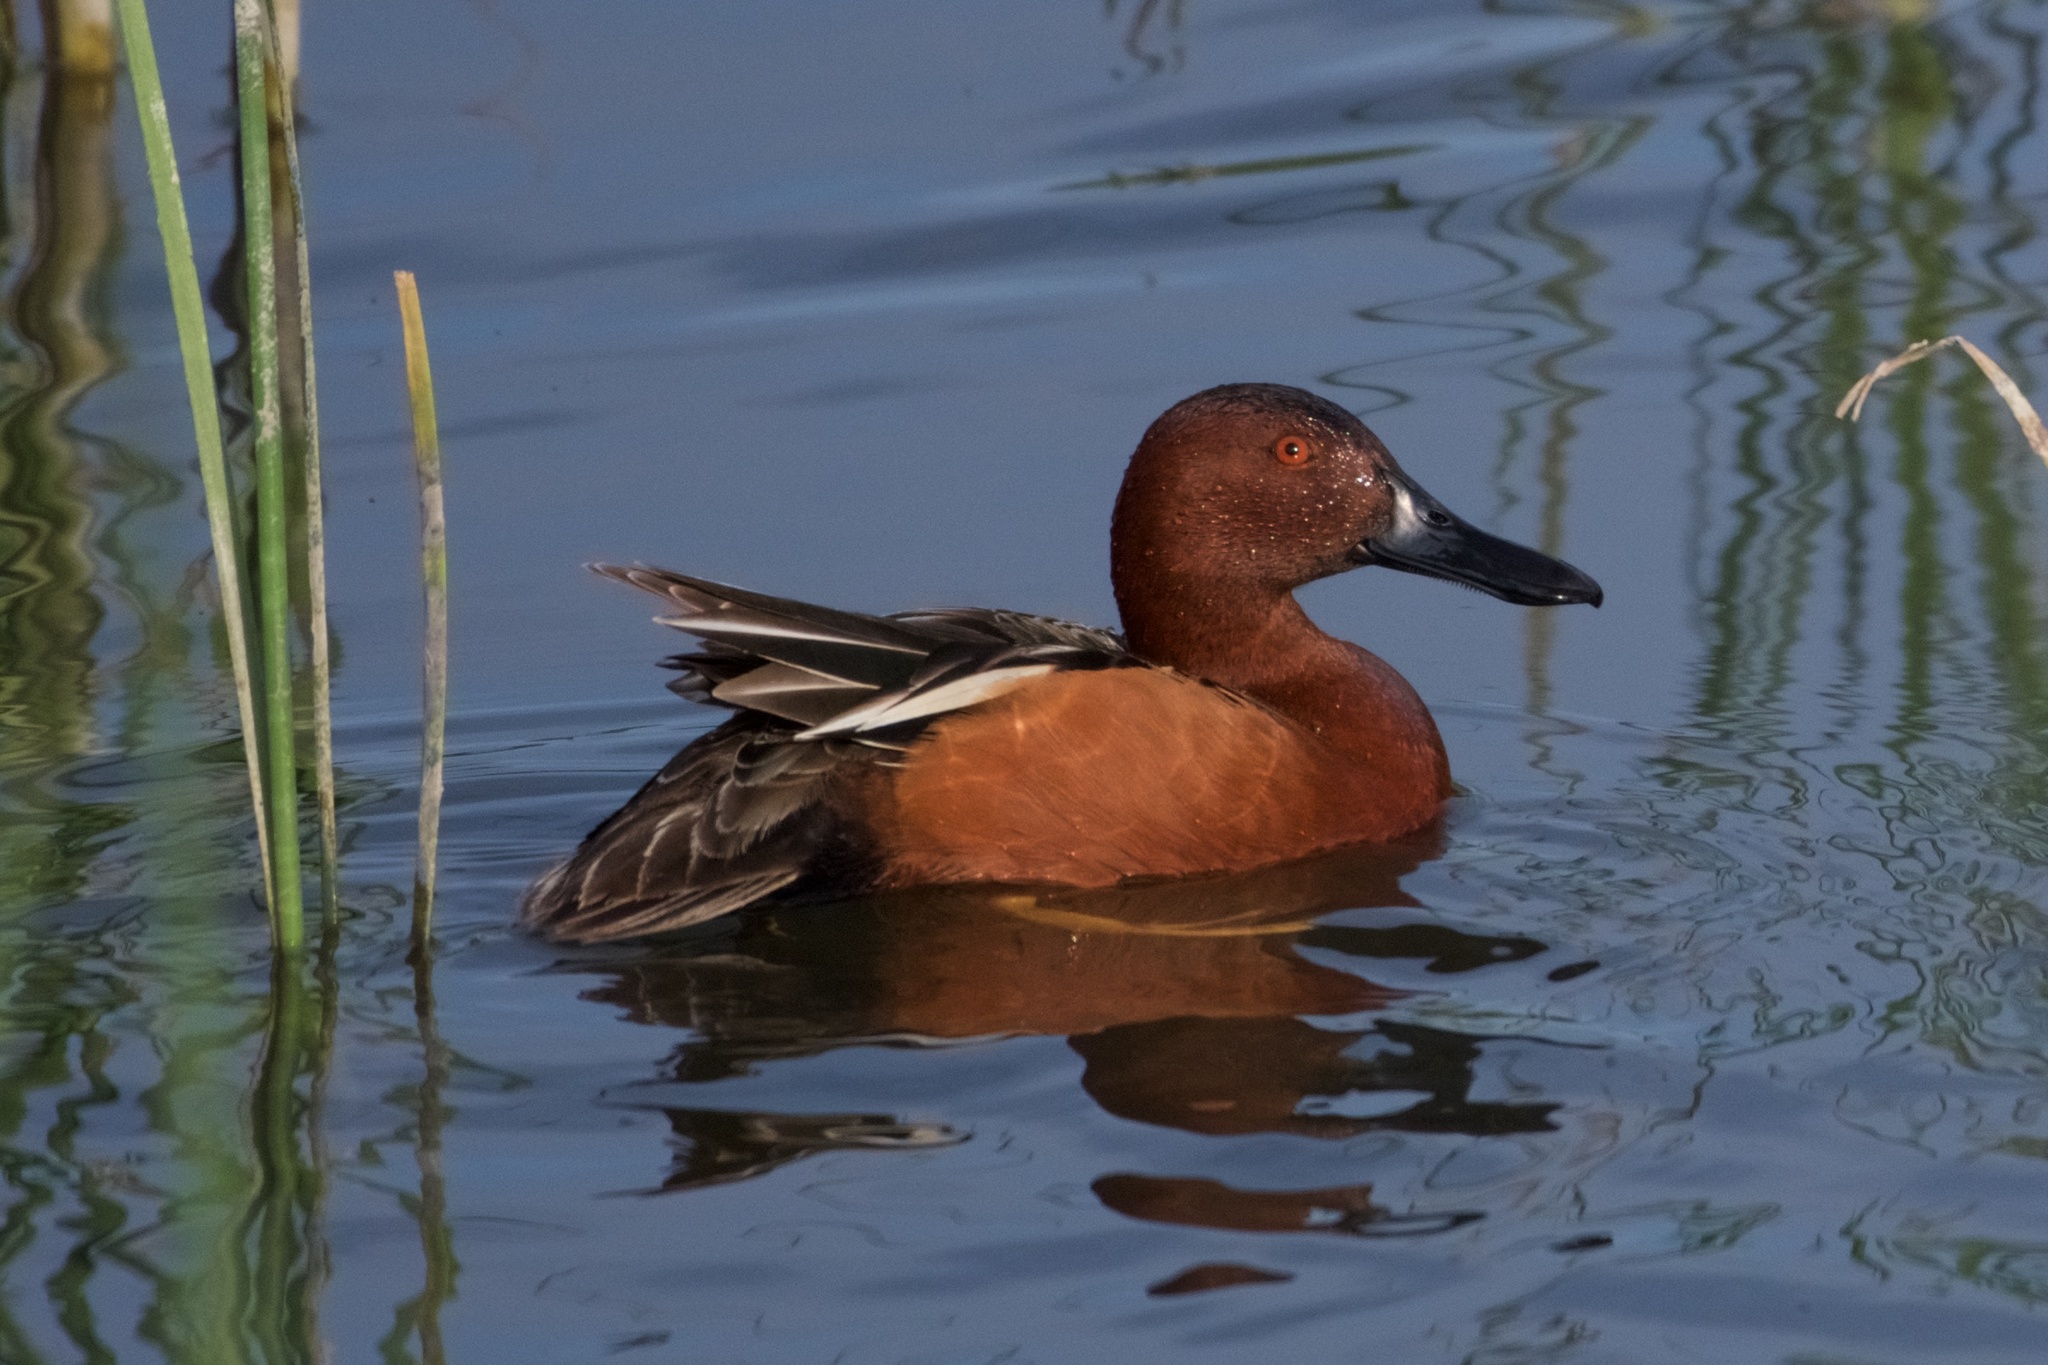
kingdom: Animalia
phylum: Chordata
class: Aves
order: Anseriformes
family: Anatidae
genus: Spatula
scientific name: Spatula cyanoptera
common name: Cinnamon teal
